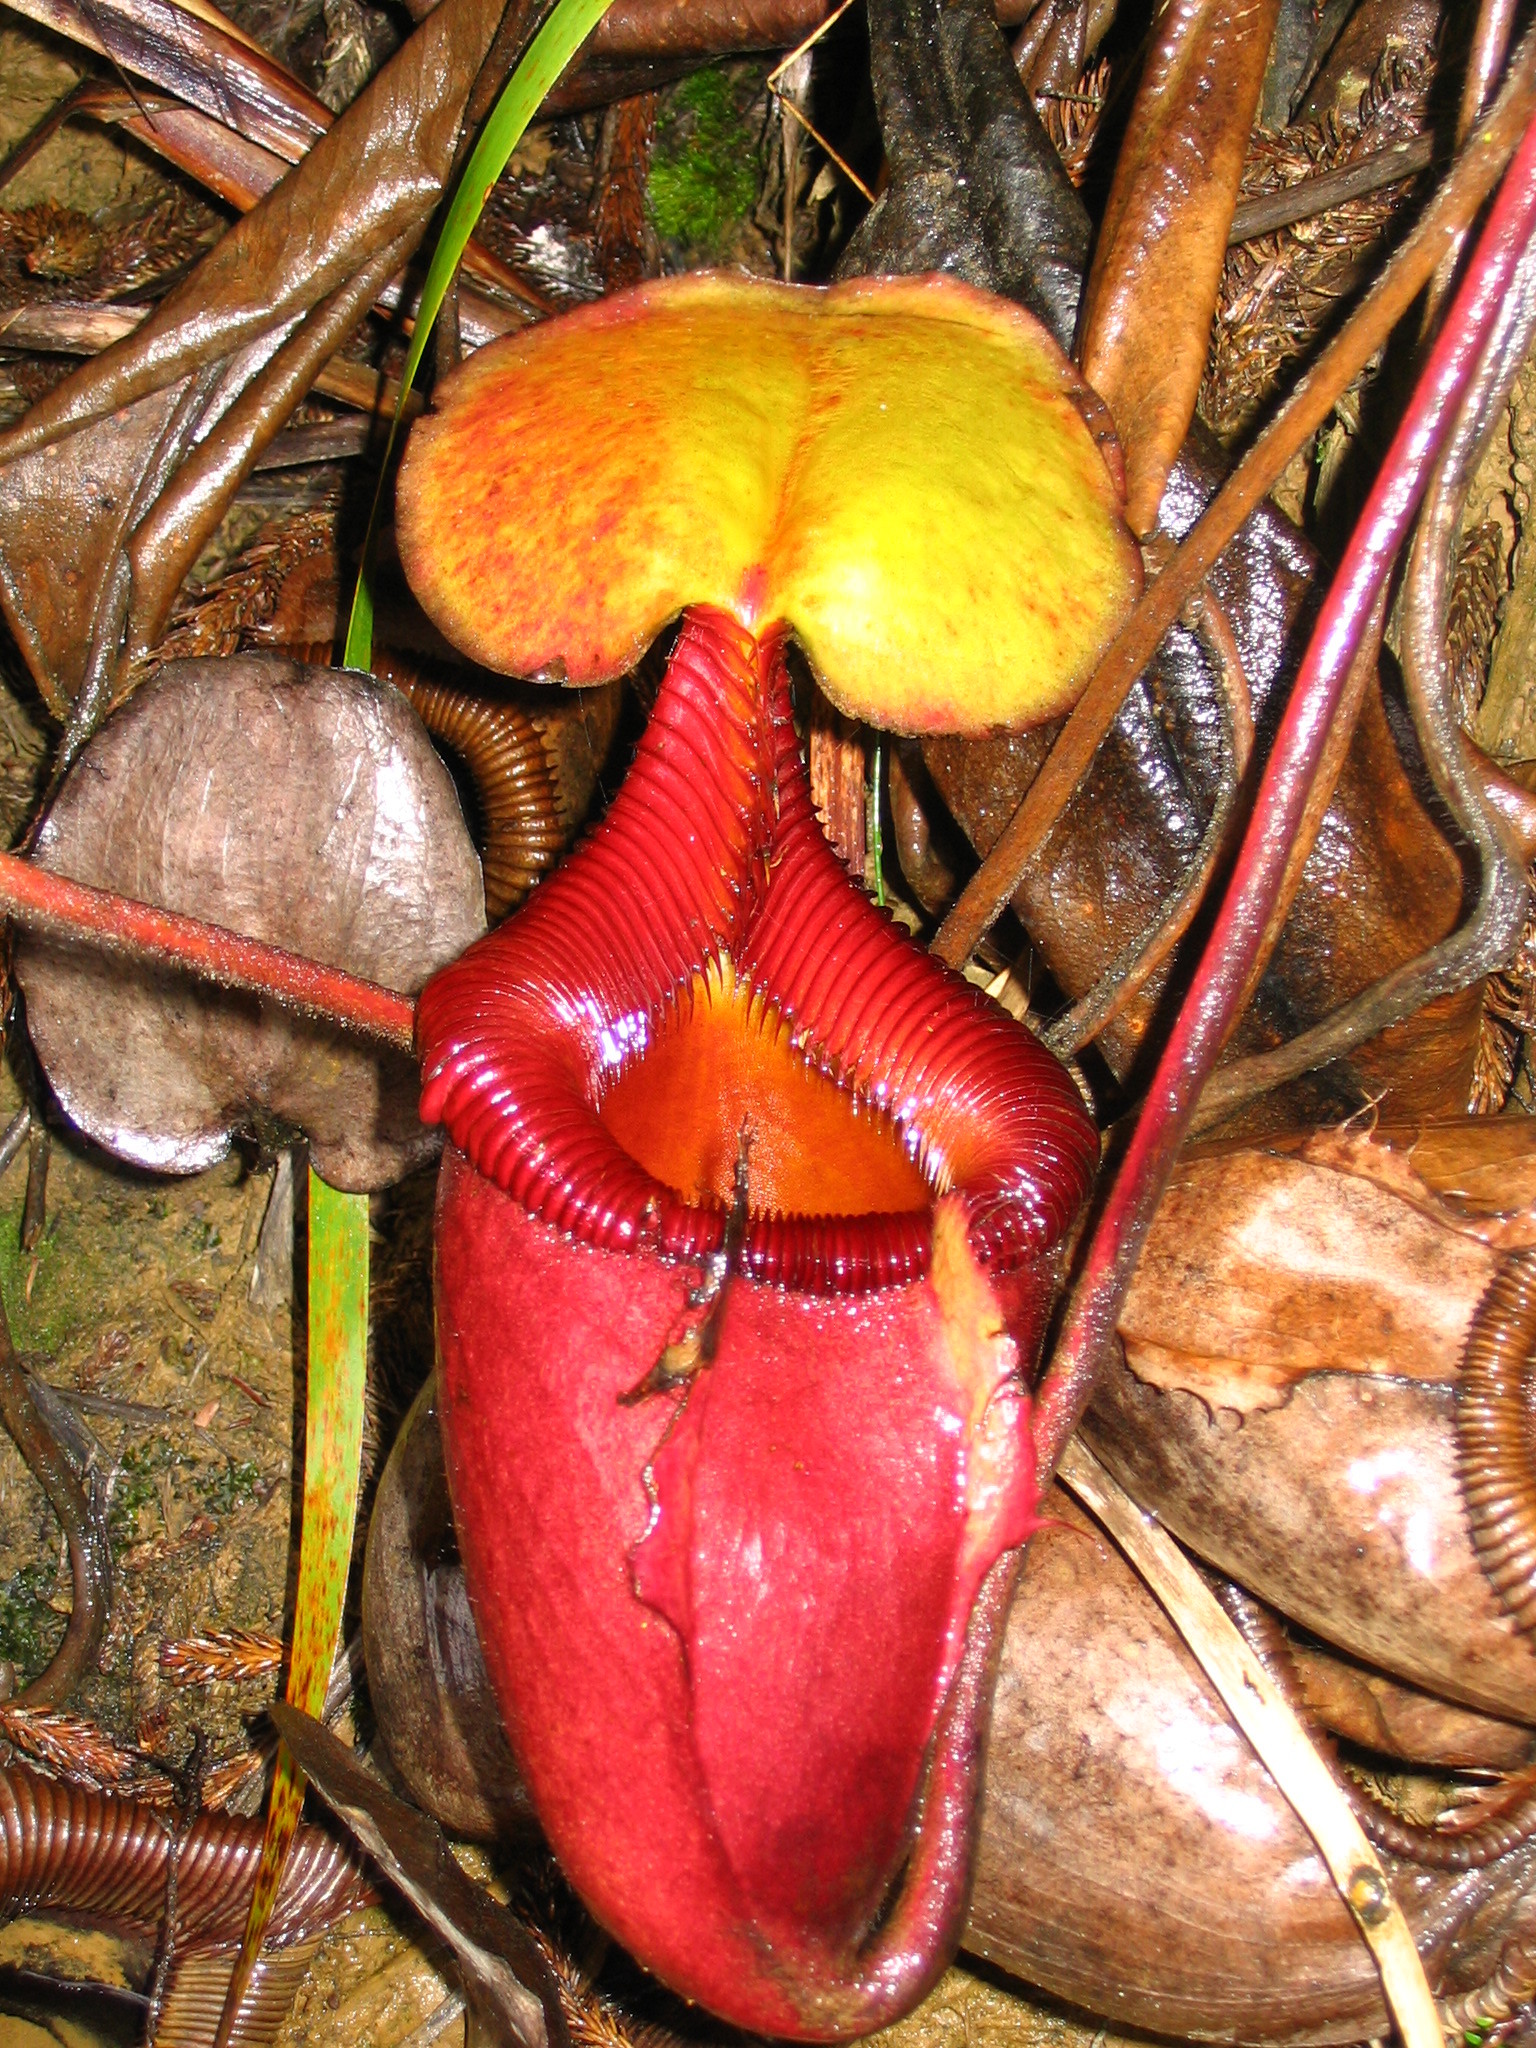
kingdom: Plantae
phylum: Tracheophyta
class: Magnoliopsida
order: Caryophyllales
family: Nepenthaceae
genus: Nepenthes
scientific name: Nepenthes kinabaluensis
